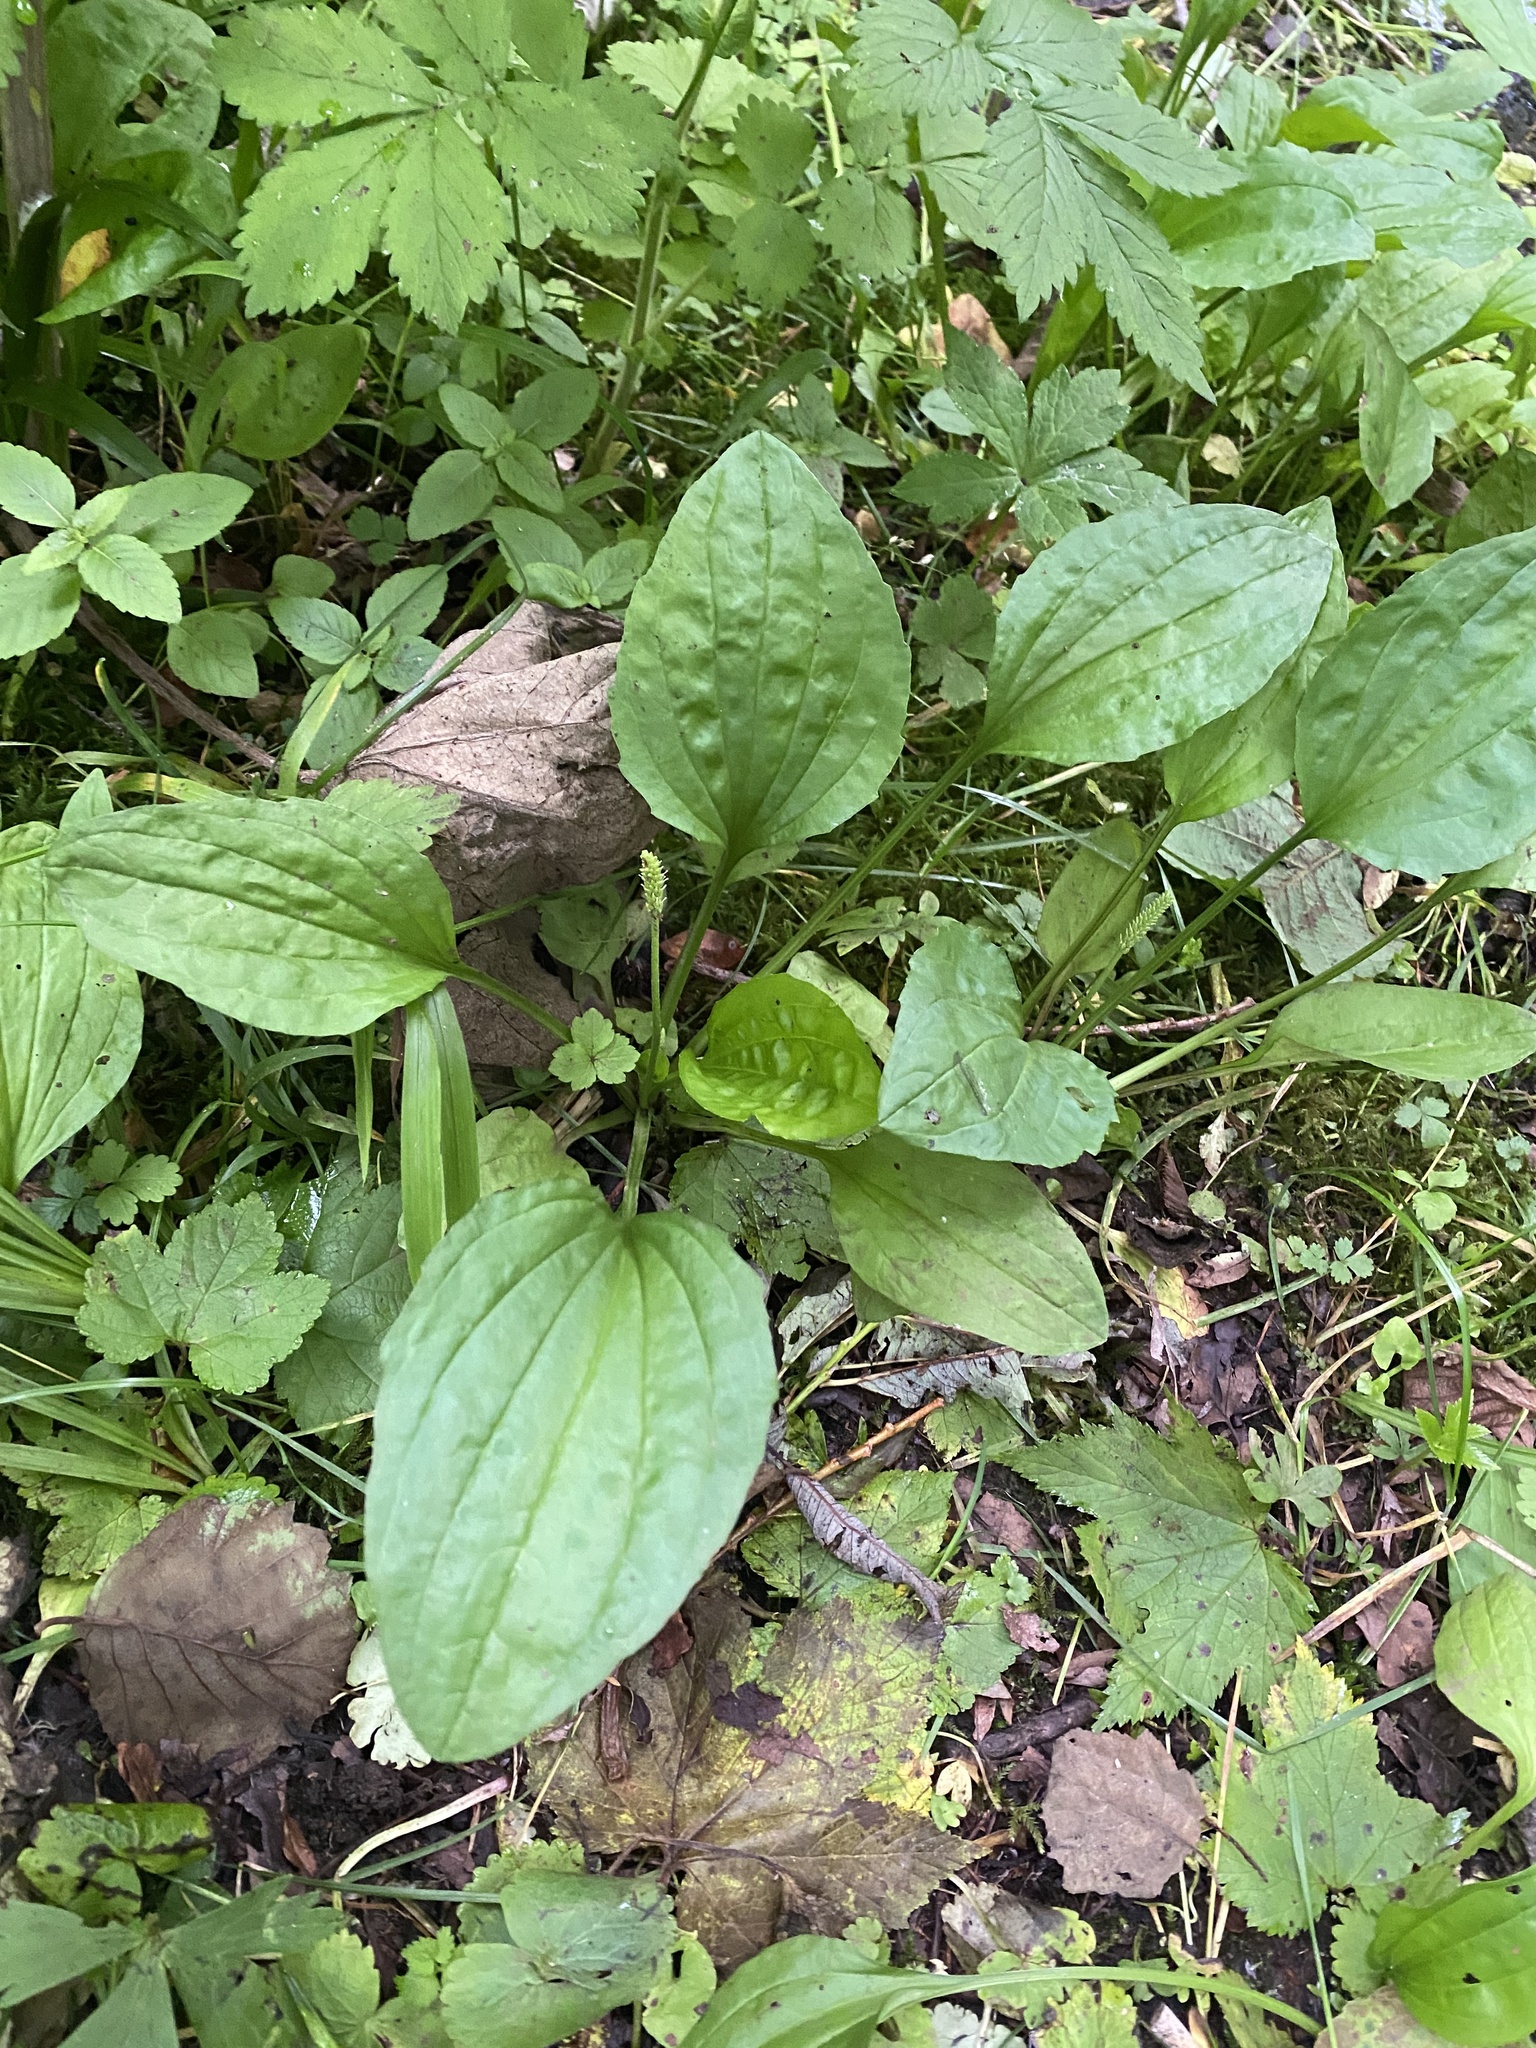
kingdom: Plantae
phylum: Tracheophyta
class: Magnoliopsida
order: Lamiales
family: Plantaginaceae
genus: Plantago
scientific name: Plantago major
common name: Common plantain
